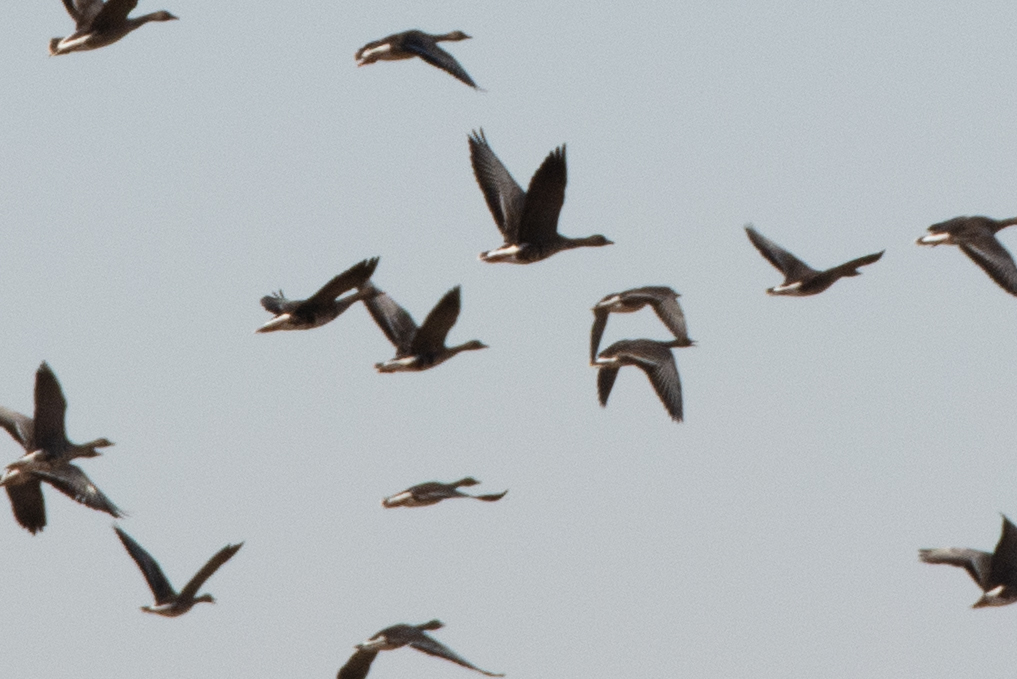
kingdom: Animalia
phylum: Chordata
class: Aves
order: Anseriformes
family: Anatidae
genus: Anser
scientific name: Anser albifrons
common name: Greater white-fronted goose
